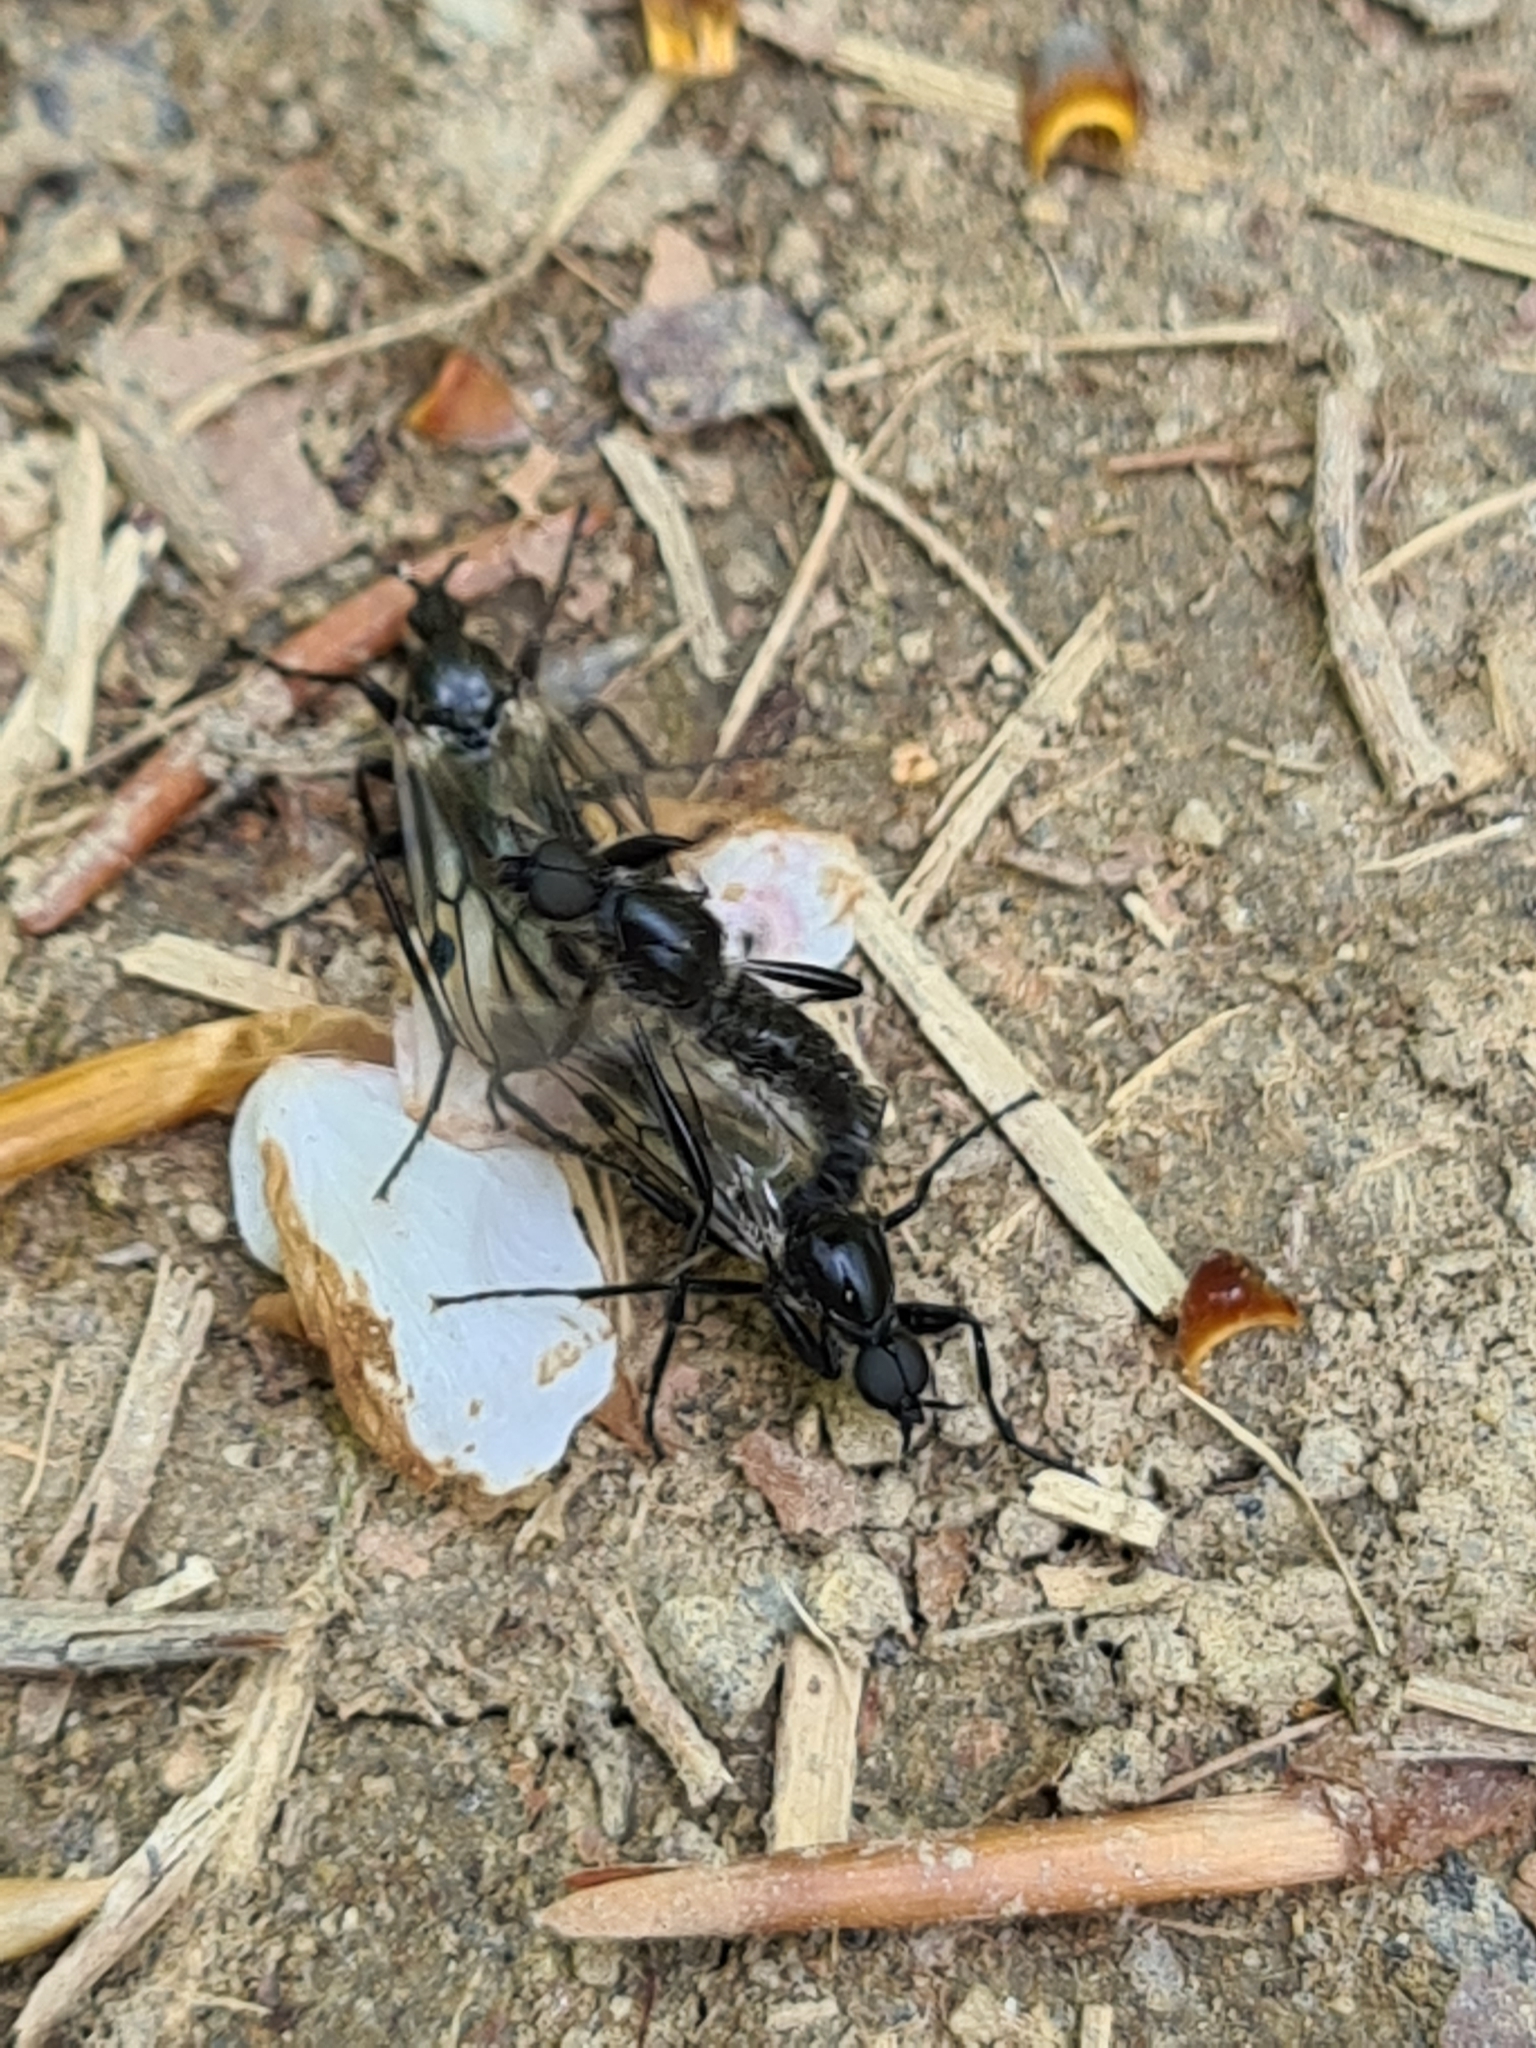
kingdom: Animalia
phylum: Arthropoda
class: Insecta
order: Diptera
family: Bibionidae
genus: Bibio
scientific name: Bibio marci
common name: St marks fly
